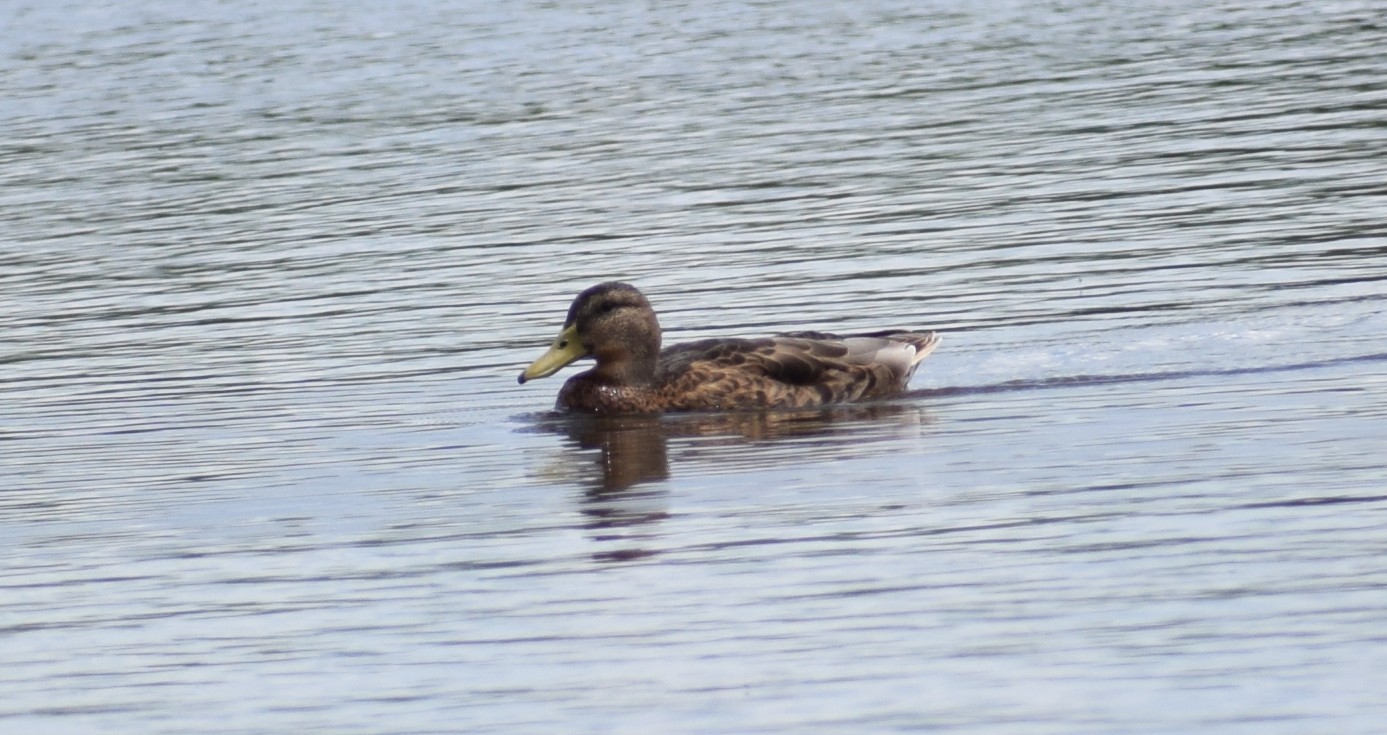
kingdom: Animalia
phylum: Chordata
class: Aves
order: Anseriformes
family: Anatidae
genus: Anas
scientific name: Anas platyrhynchos
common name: Mallard
